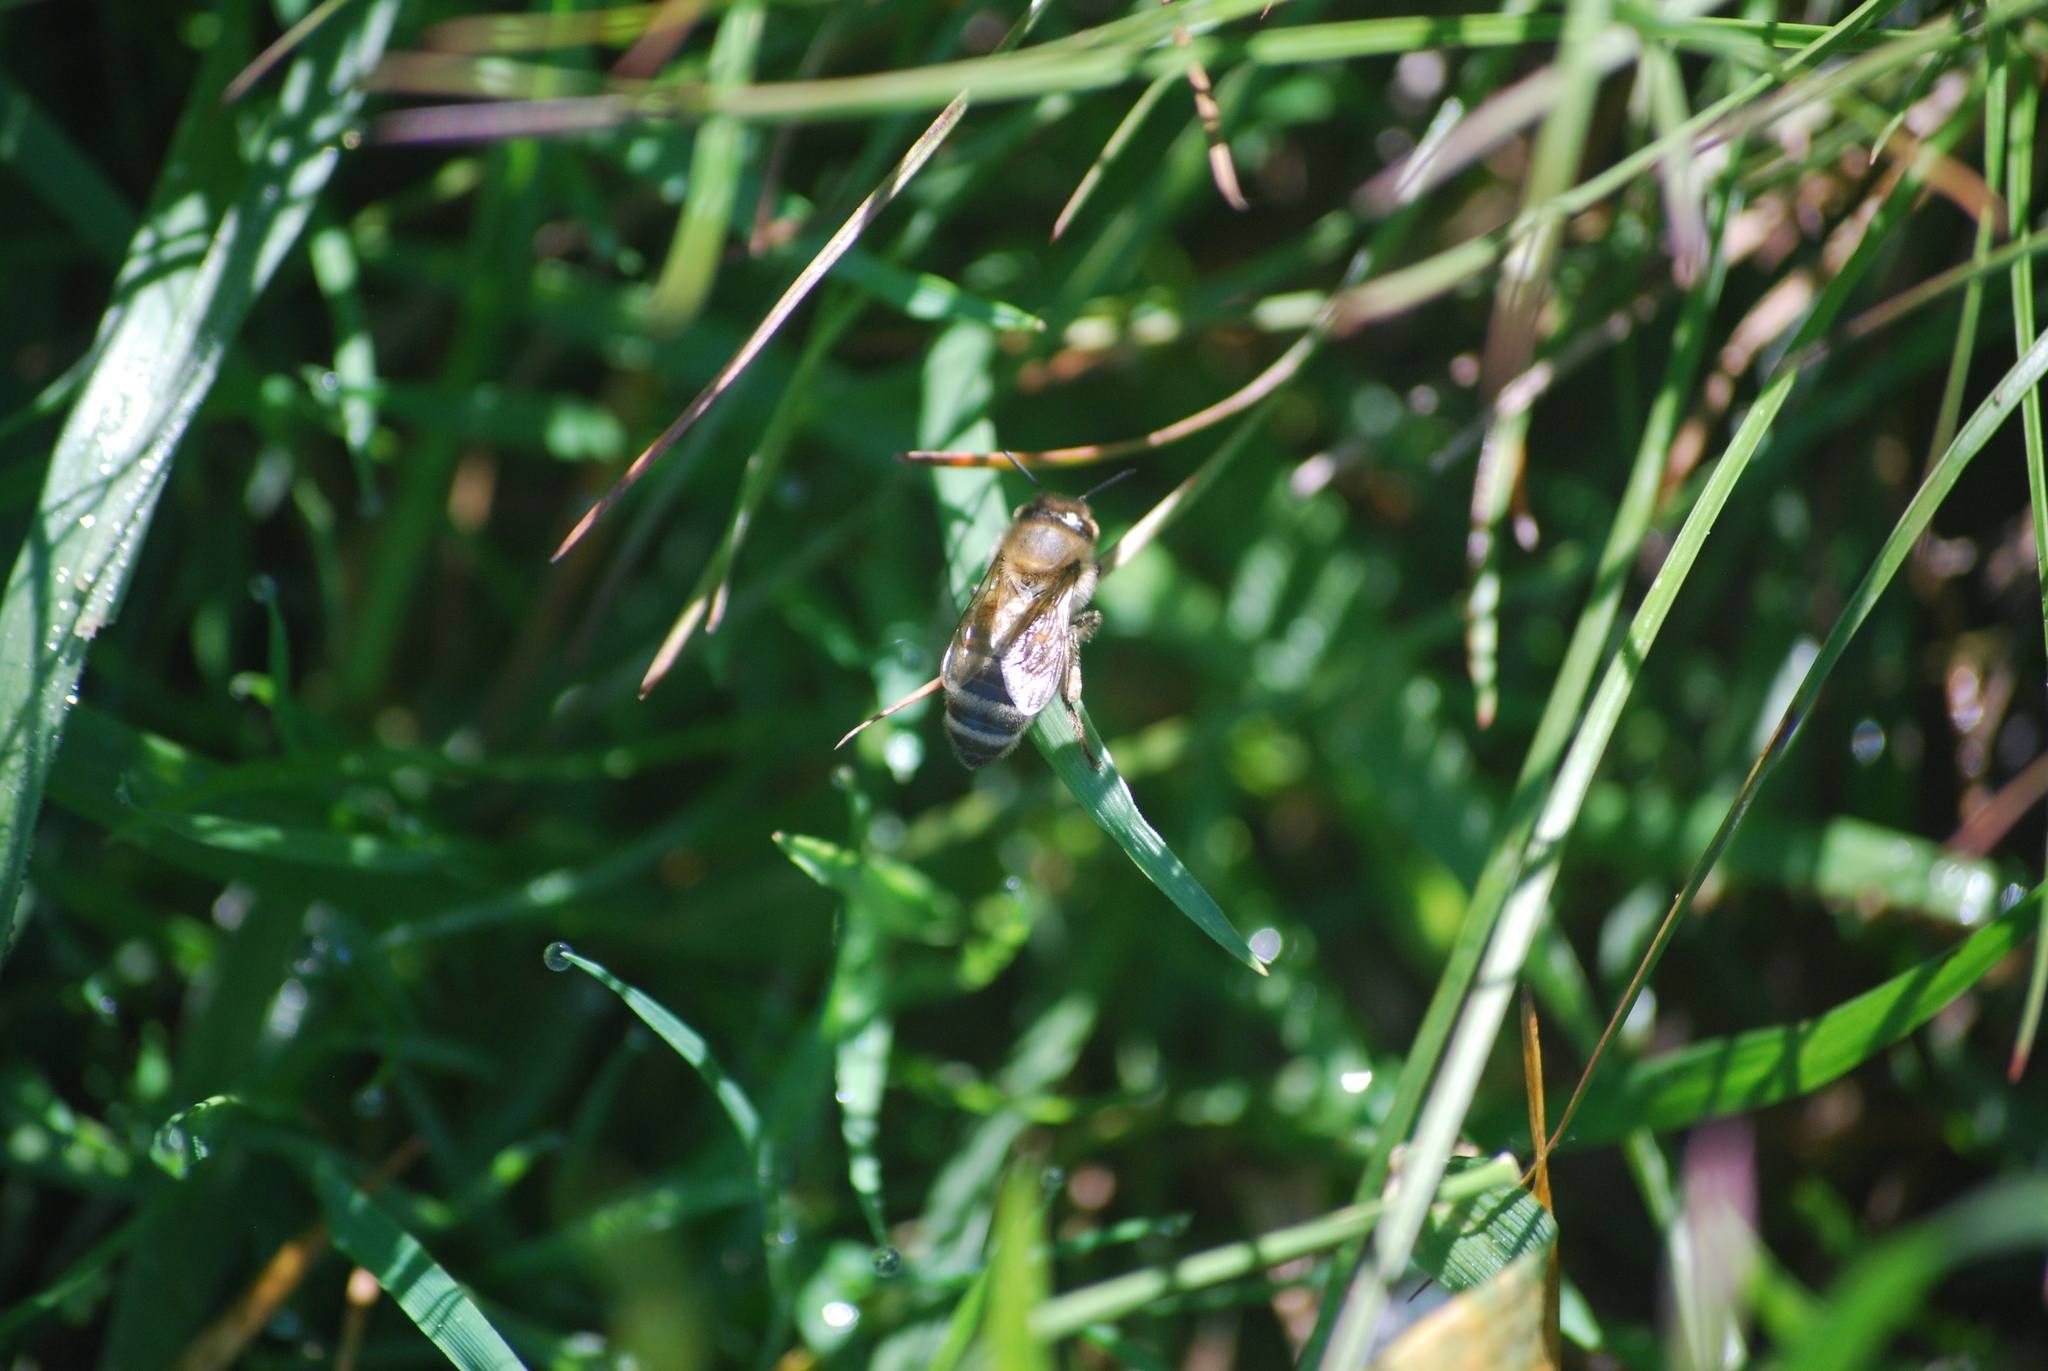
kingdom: Animalia
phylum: Arthropoda
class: Insecta
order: Hymenoptera
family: Apidae
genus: Apis
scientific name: Apis mellifera
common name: Honey bee
